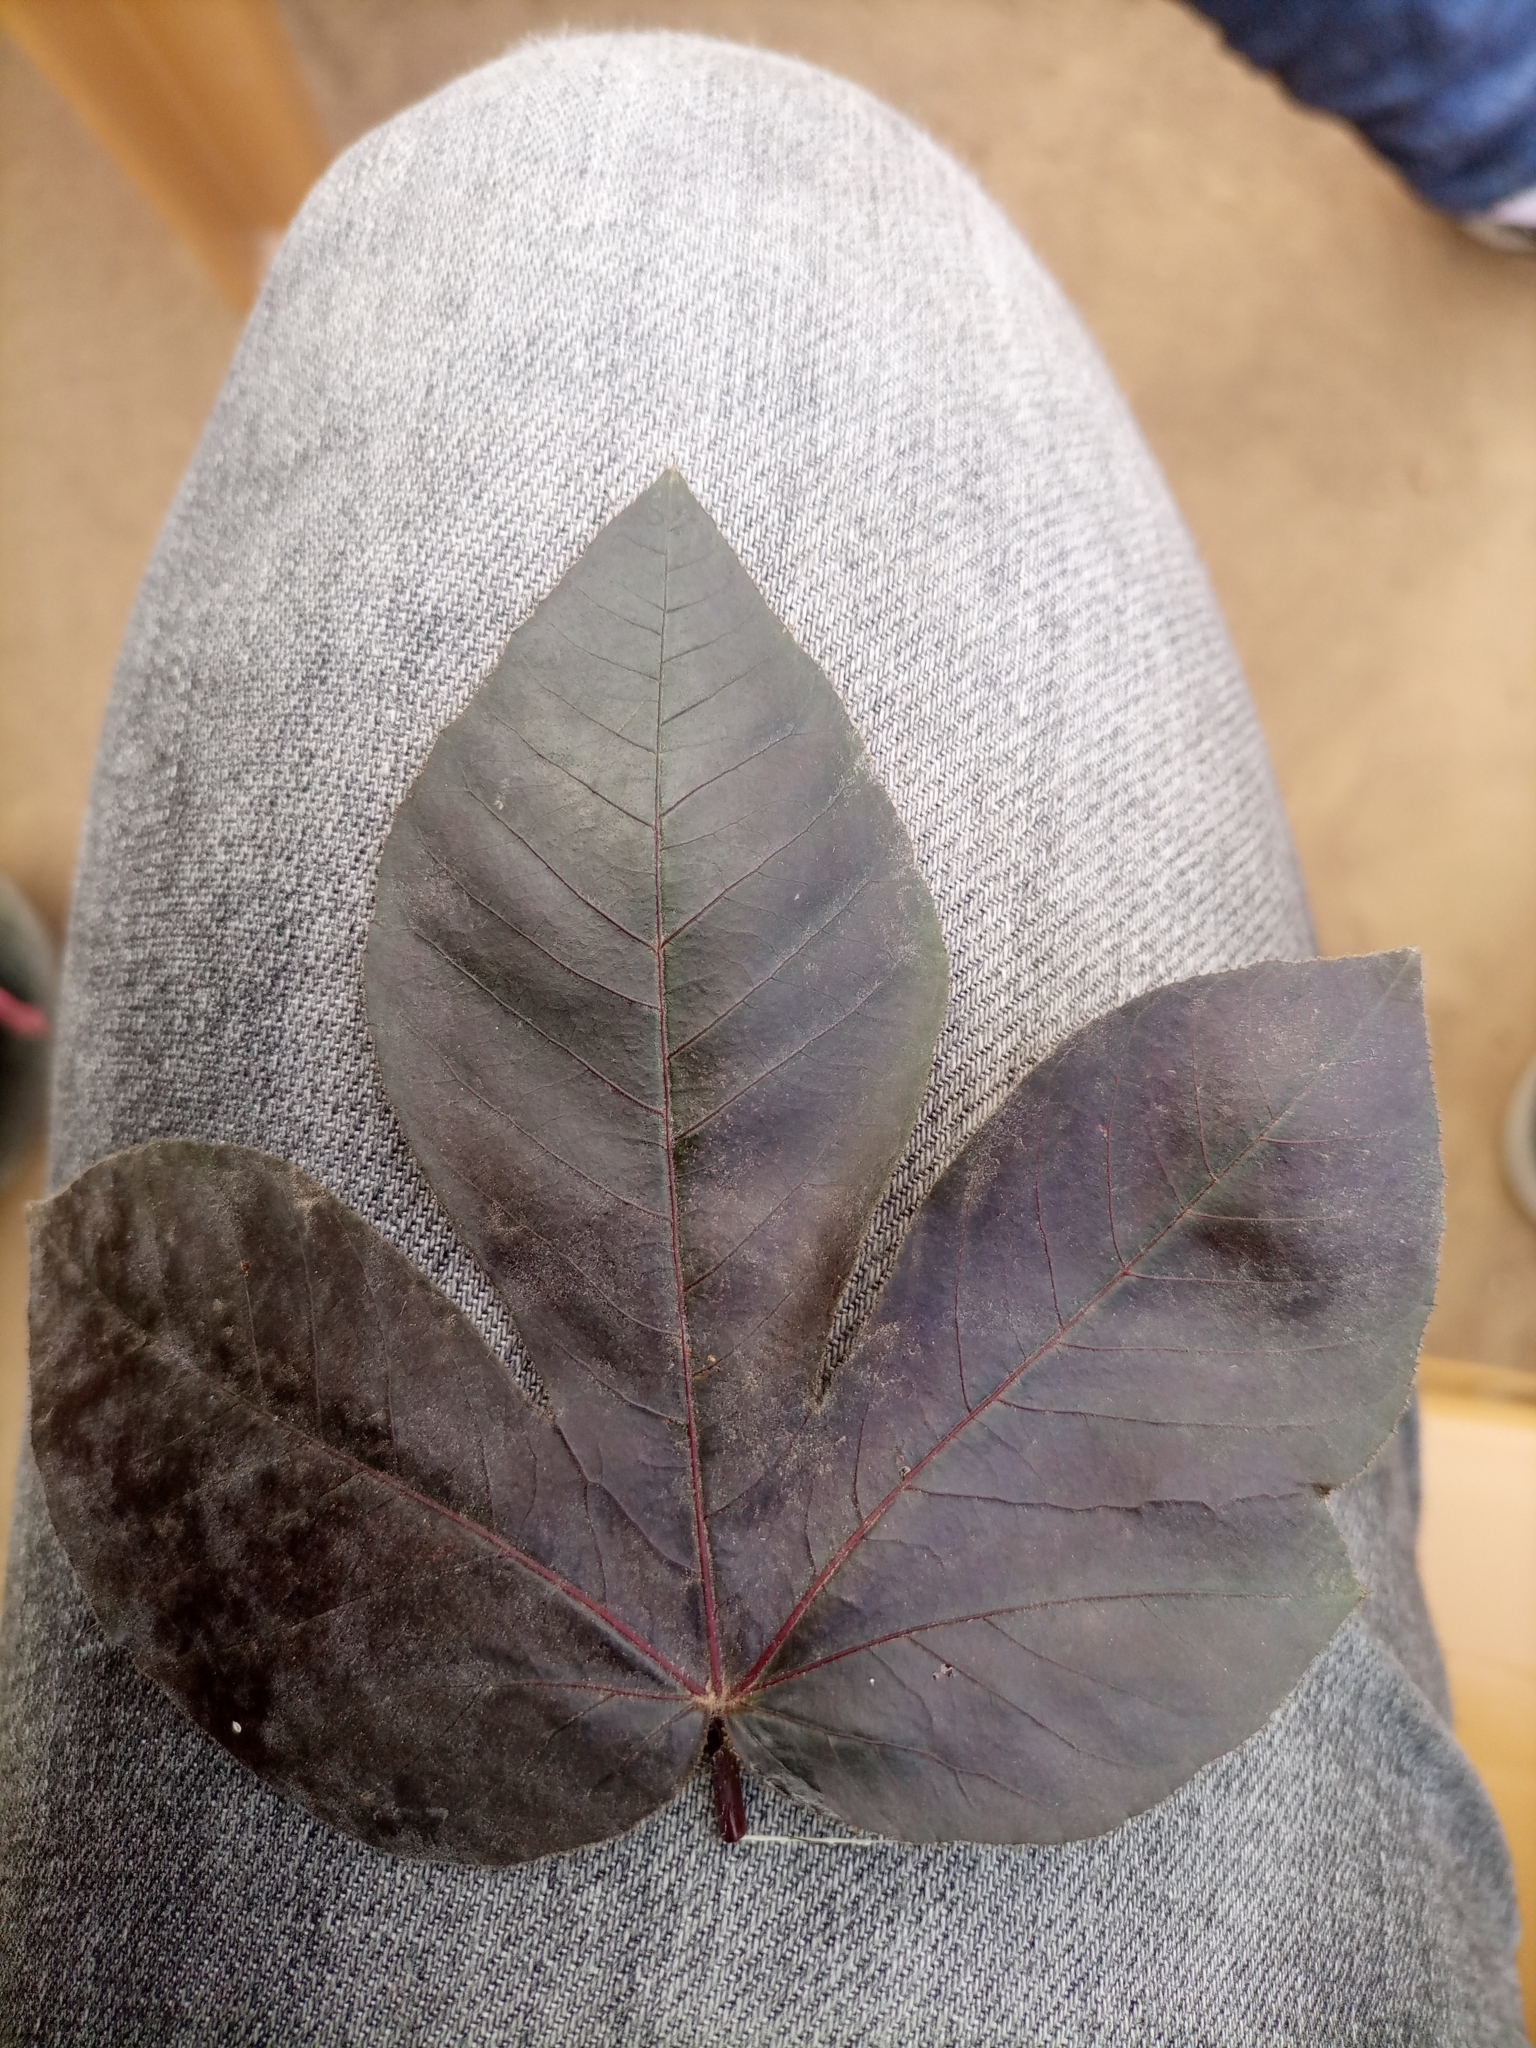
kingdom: Plantae
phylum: Tracheophyta
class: Magnoliopsida
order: Malpighiales
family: Euphorbiaceae
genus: Jatropha
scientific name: Jatropha gossypiifolia
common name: Bellyache bush
